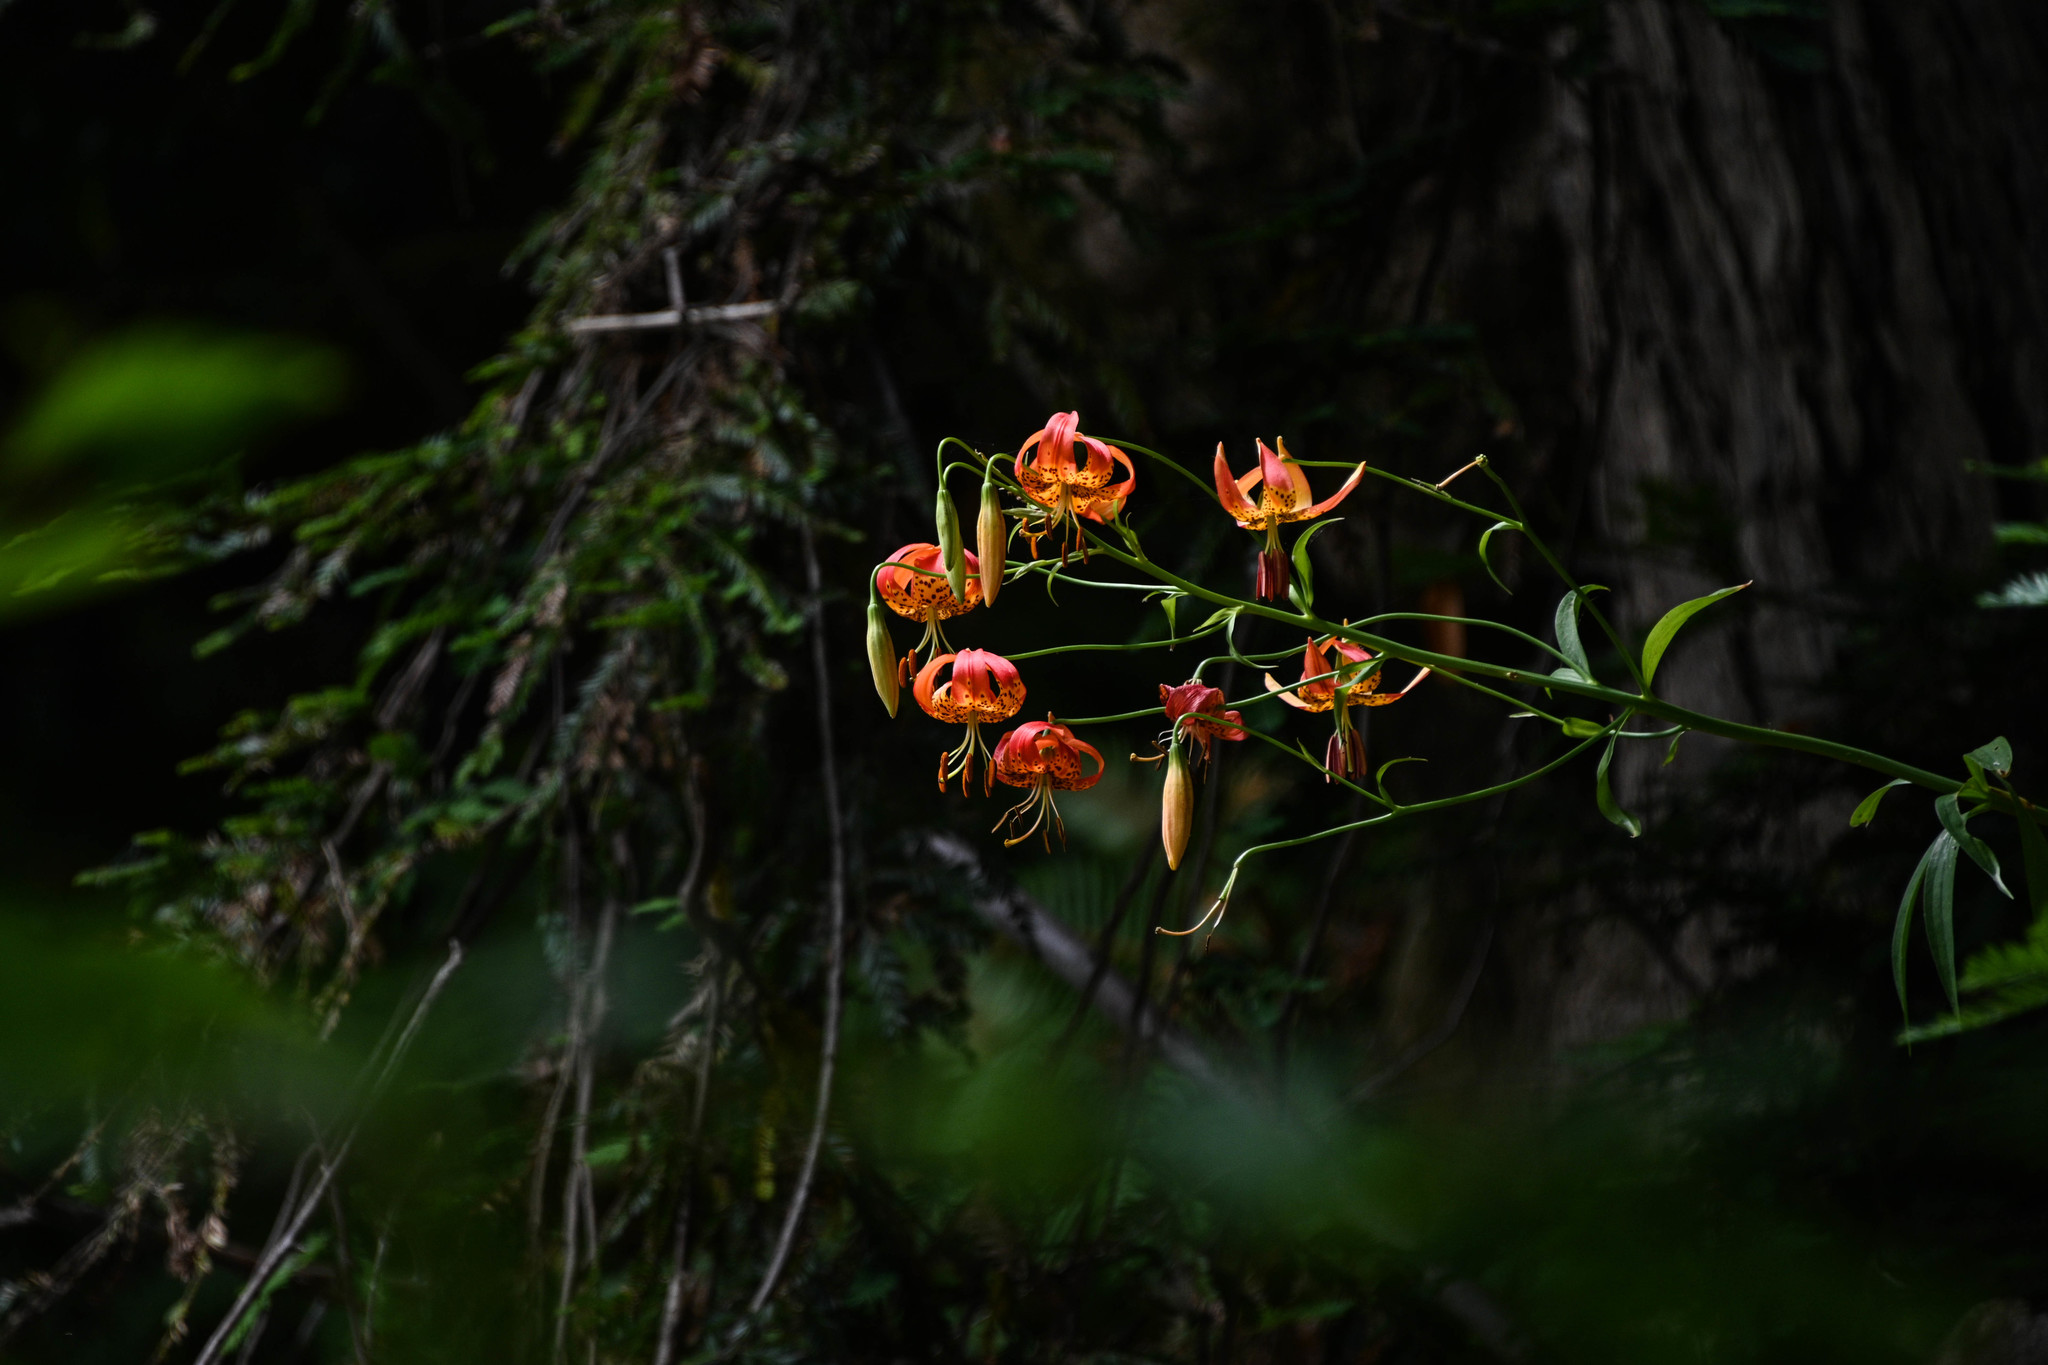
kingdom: Plantae
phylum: Tracheophyta
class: Liliopsida
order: Liliales
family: Liliaceae
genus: Lilium
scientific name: Lilium pardalinum
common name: Panther lily
